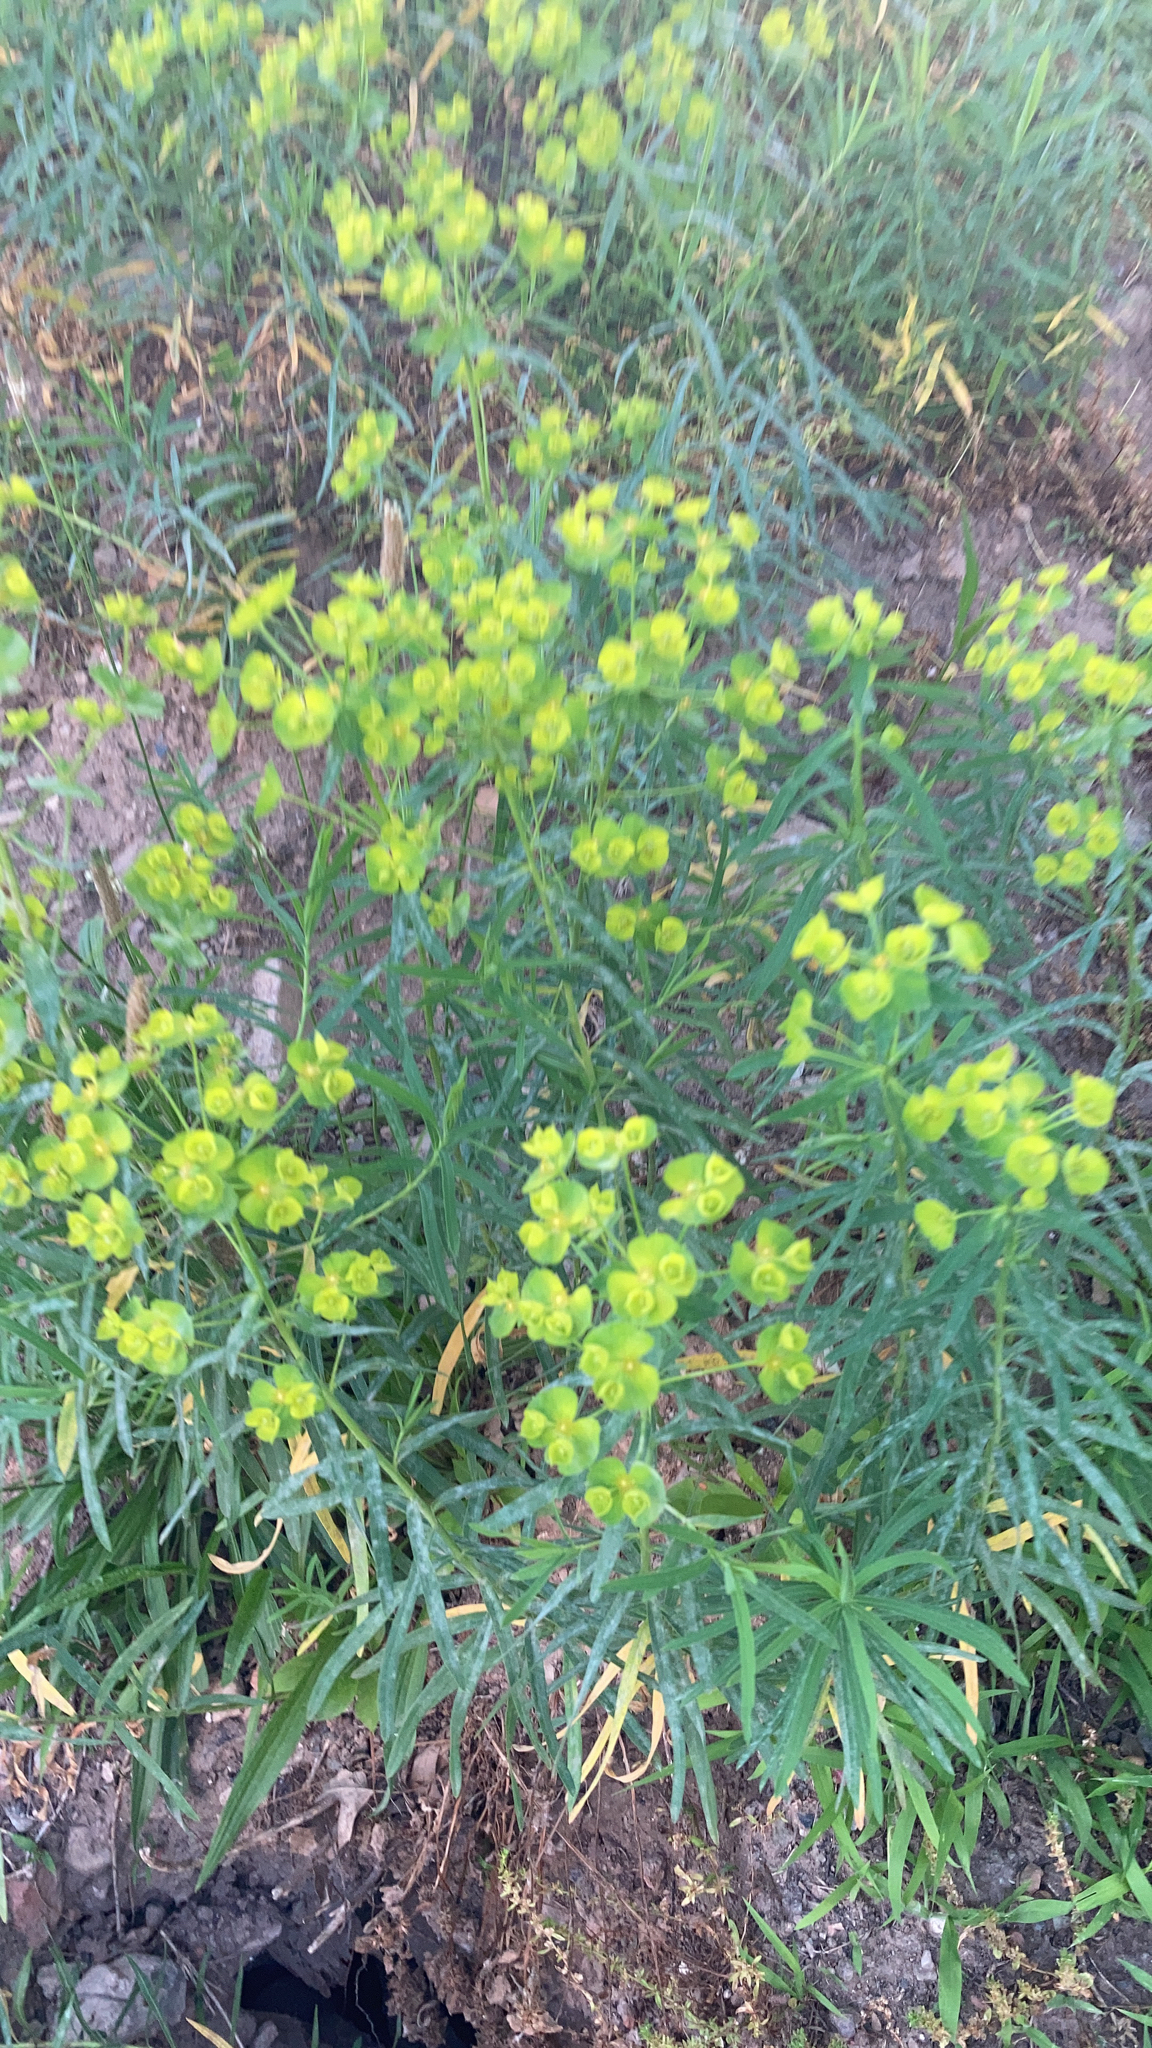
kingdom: Plantae
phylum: Tracheophyta
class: Magnoliopsida
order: Malpighiales
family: Euphorbiaceae
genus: Euphorbia
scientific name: Euphorbia cyparissias
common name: Cypress spurge
